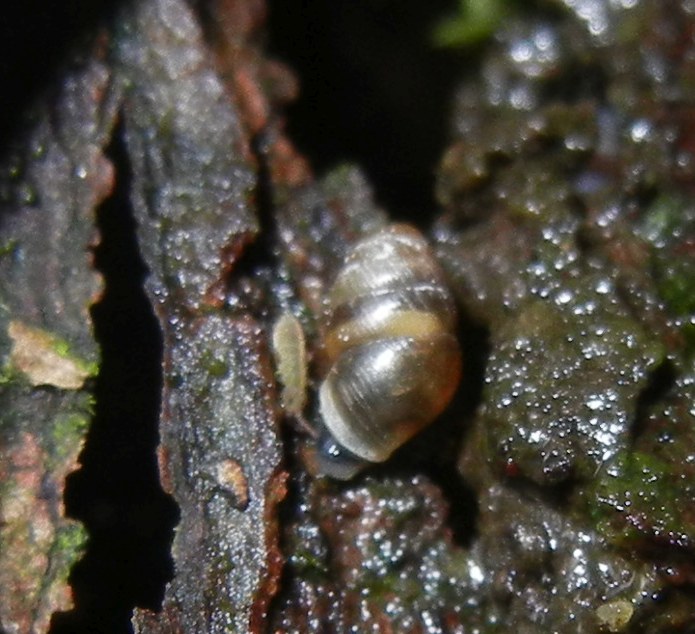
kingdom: Animalia
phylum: Mollusca
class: Gastropoda
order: Stylommatophora
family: Lauriidae
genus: Lauria
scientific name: Lauria cylindracea
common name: Common chrysalis snail
